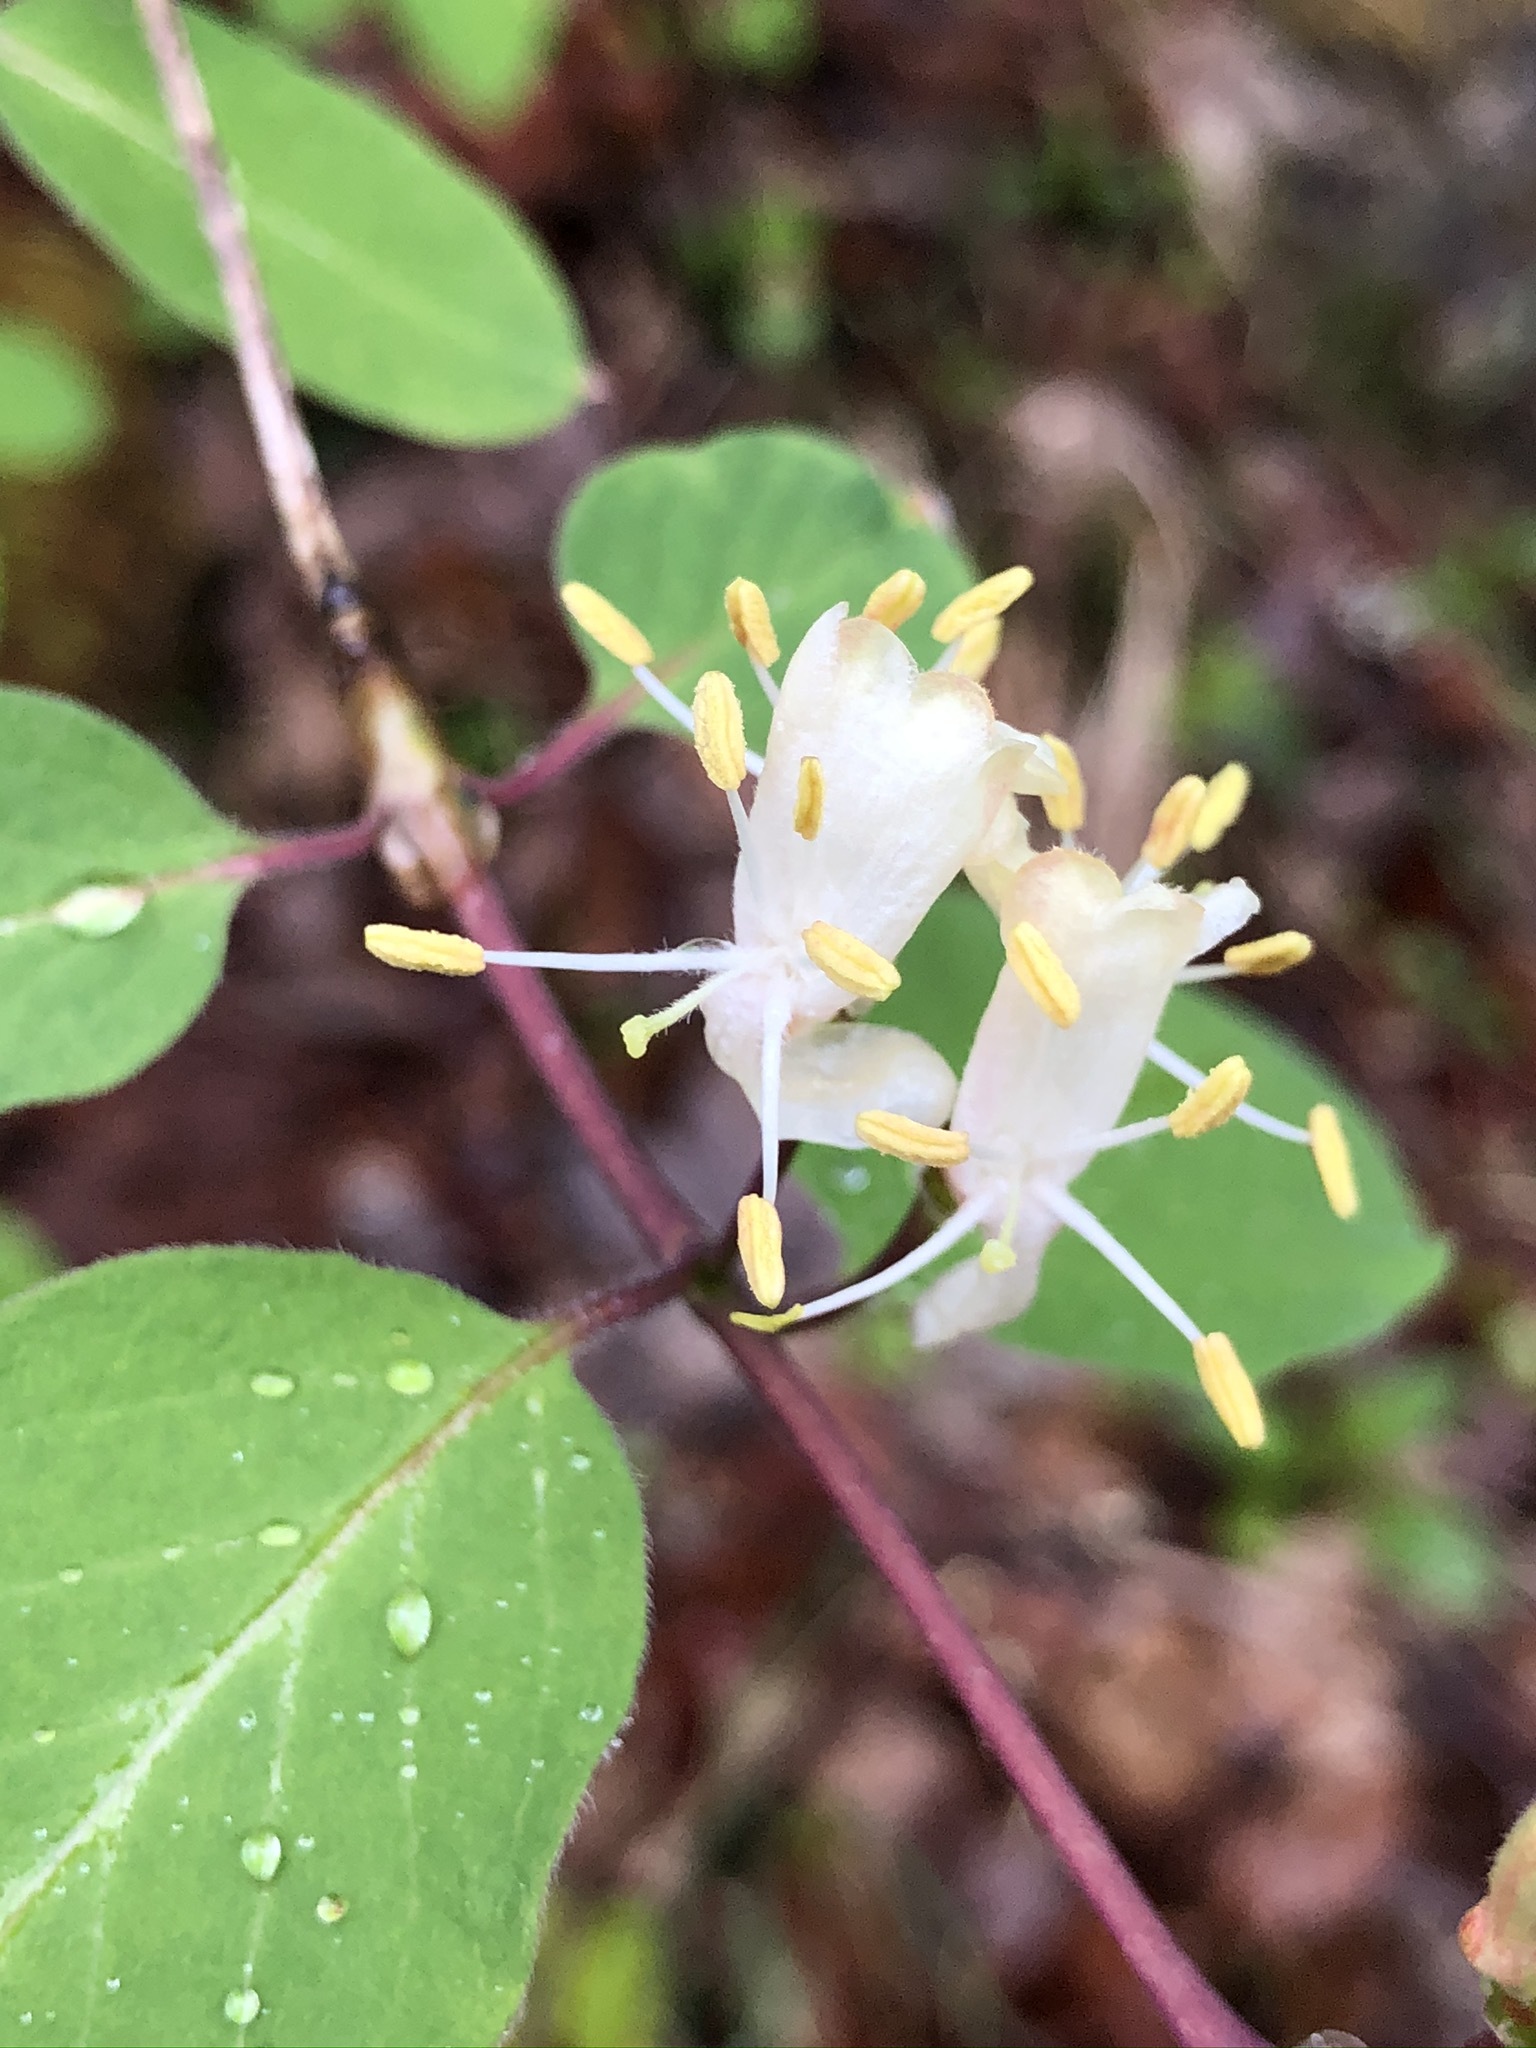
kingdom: Plantae
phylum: Tracheophyta
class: Magnoliopsida
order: Dipsacales
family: Caprifoliaceae
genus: Lonicera
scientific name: Lonicera xylosteum
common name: Fly honeysuckle
